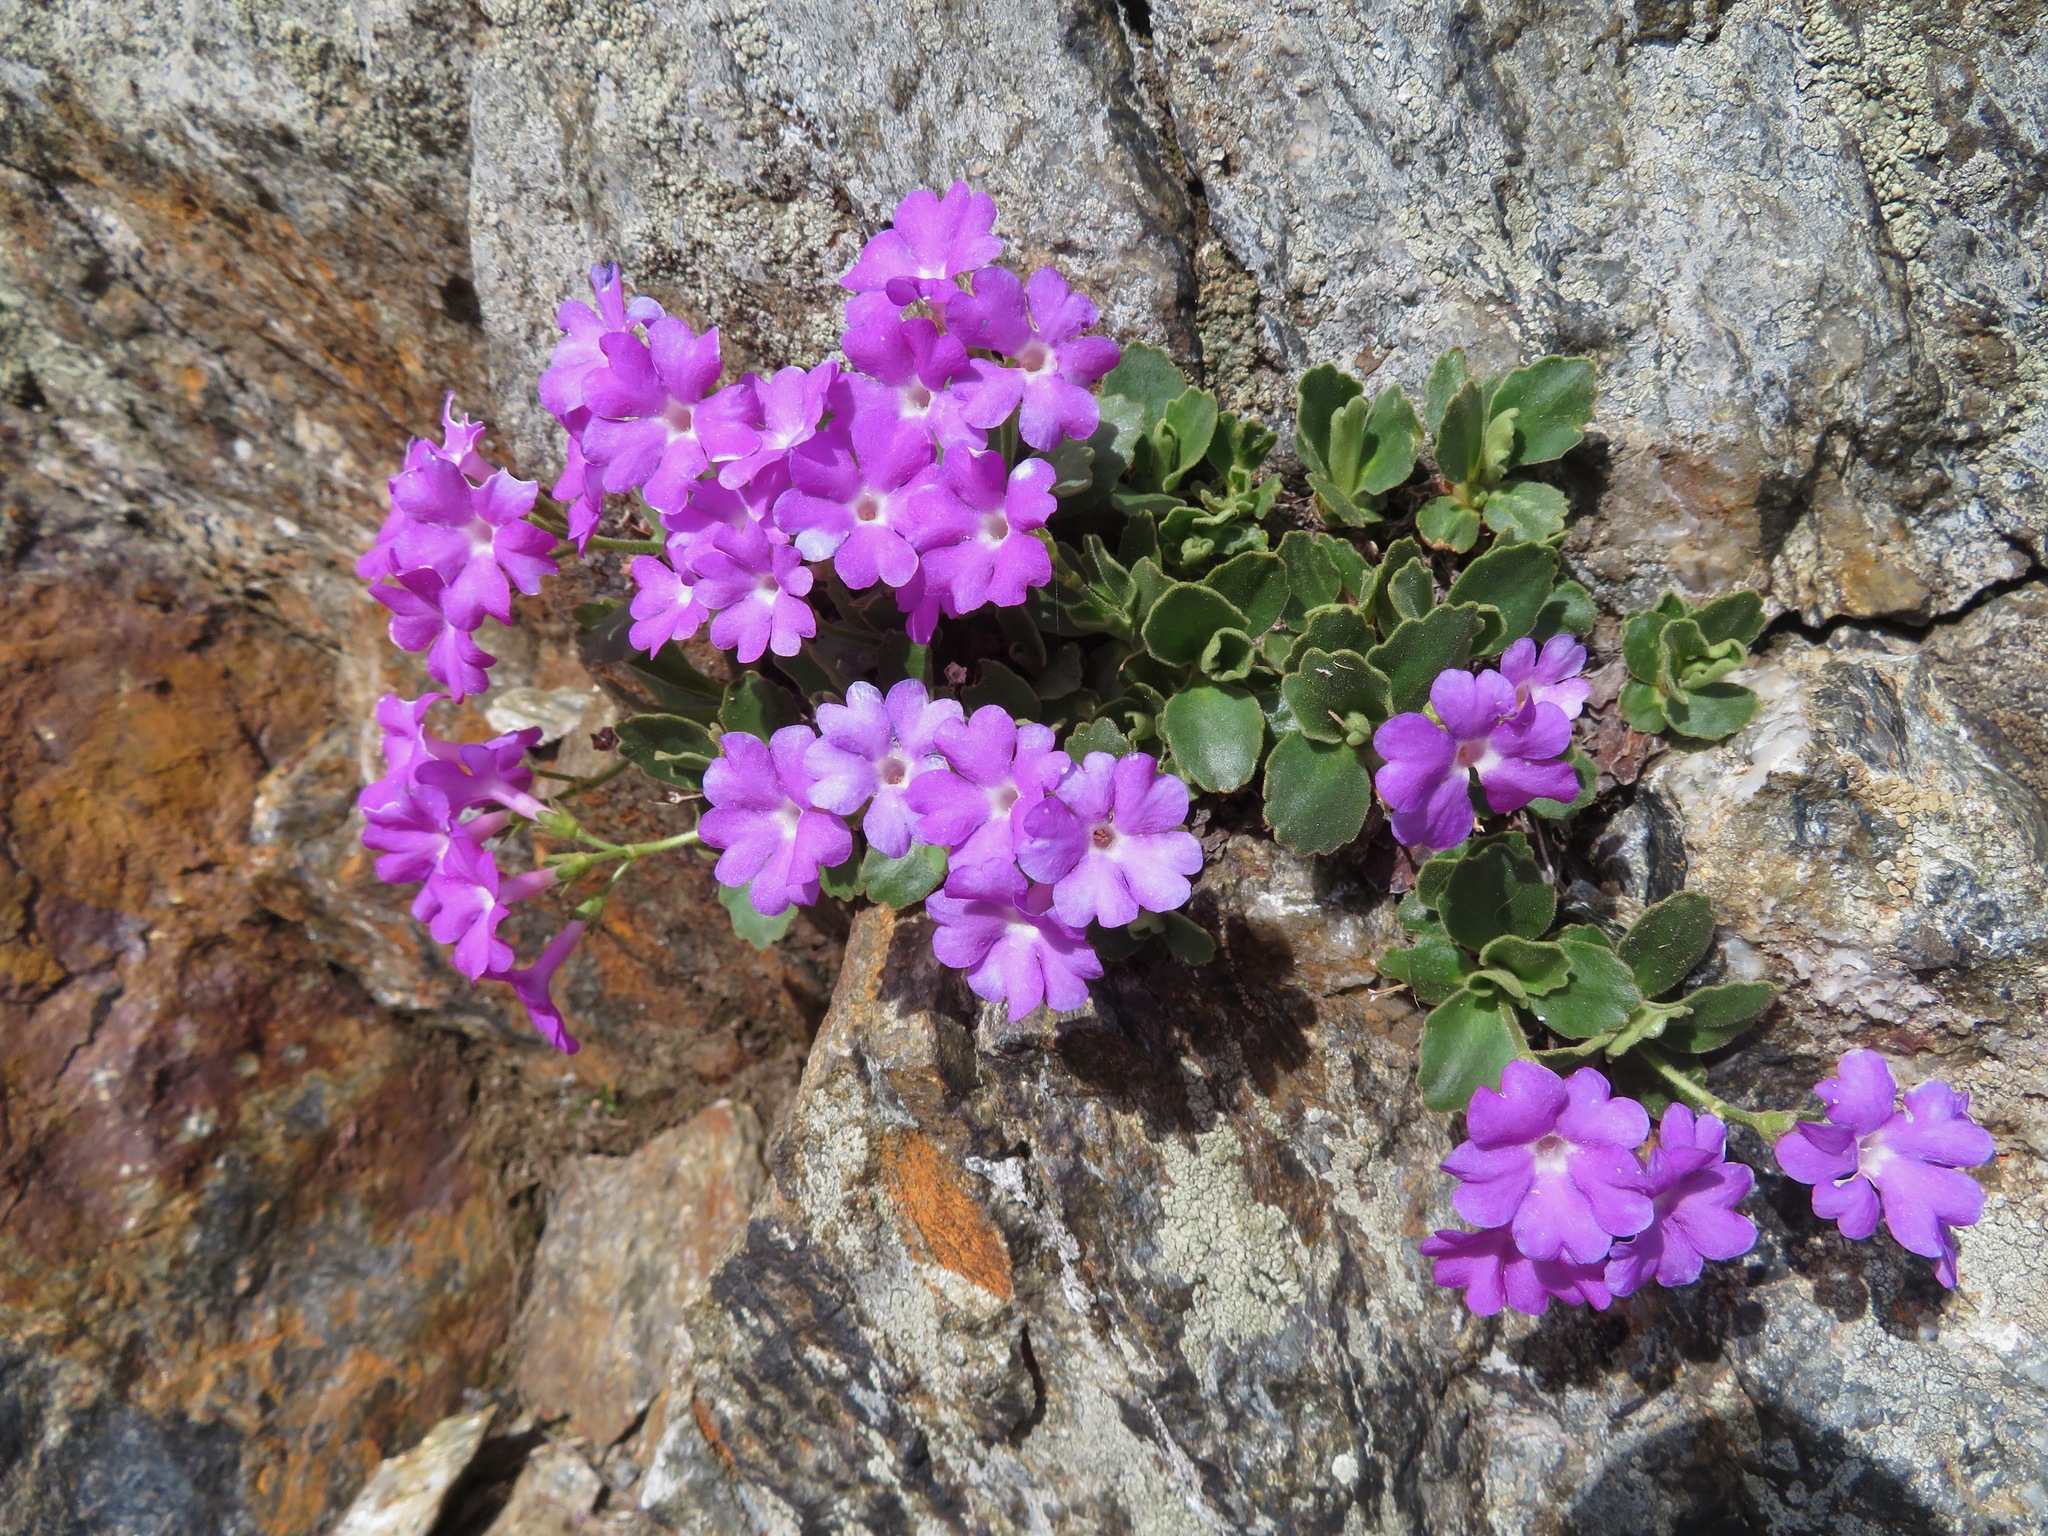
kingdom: Plantae
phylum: Tracheophyta
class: Magnoliopsida
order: Ericales
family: Primulaceae
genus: Primula
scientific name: Primula hirsuta
